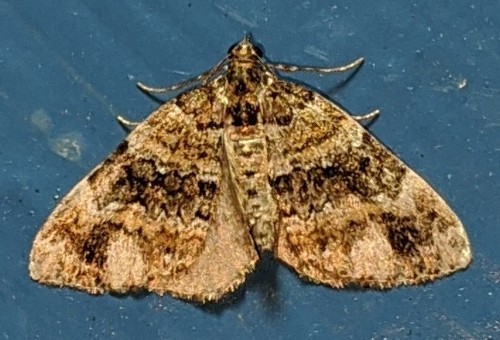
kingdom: Animalia
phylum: Arthropoda
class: Insecta
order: Lepidoptera
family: Geometridae
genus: Martania
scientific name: Martania
